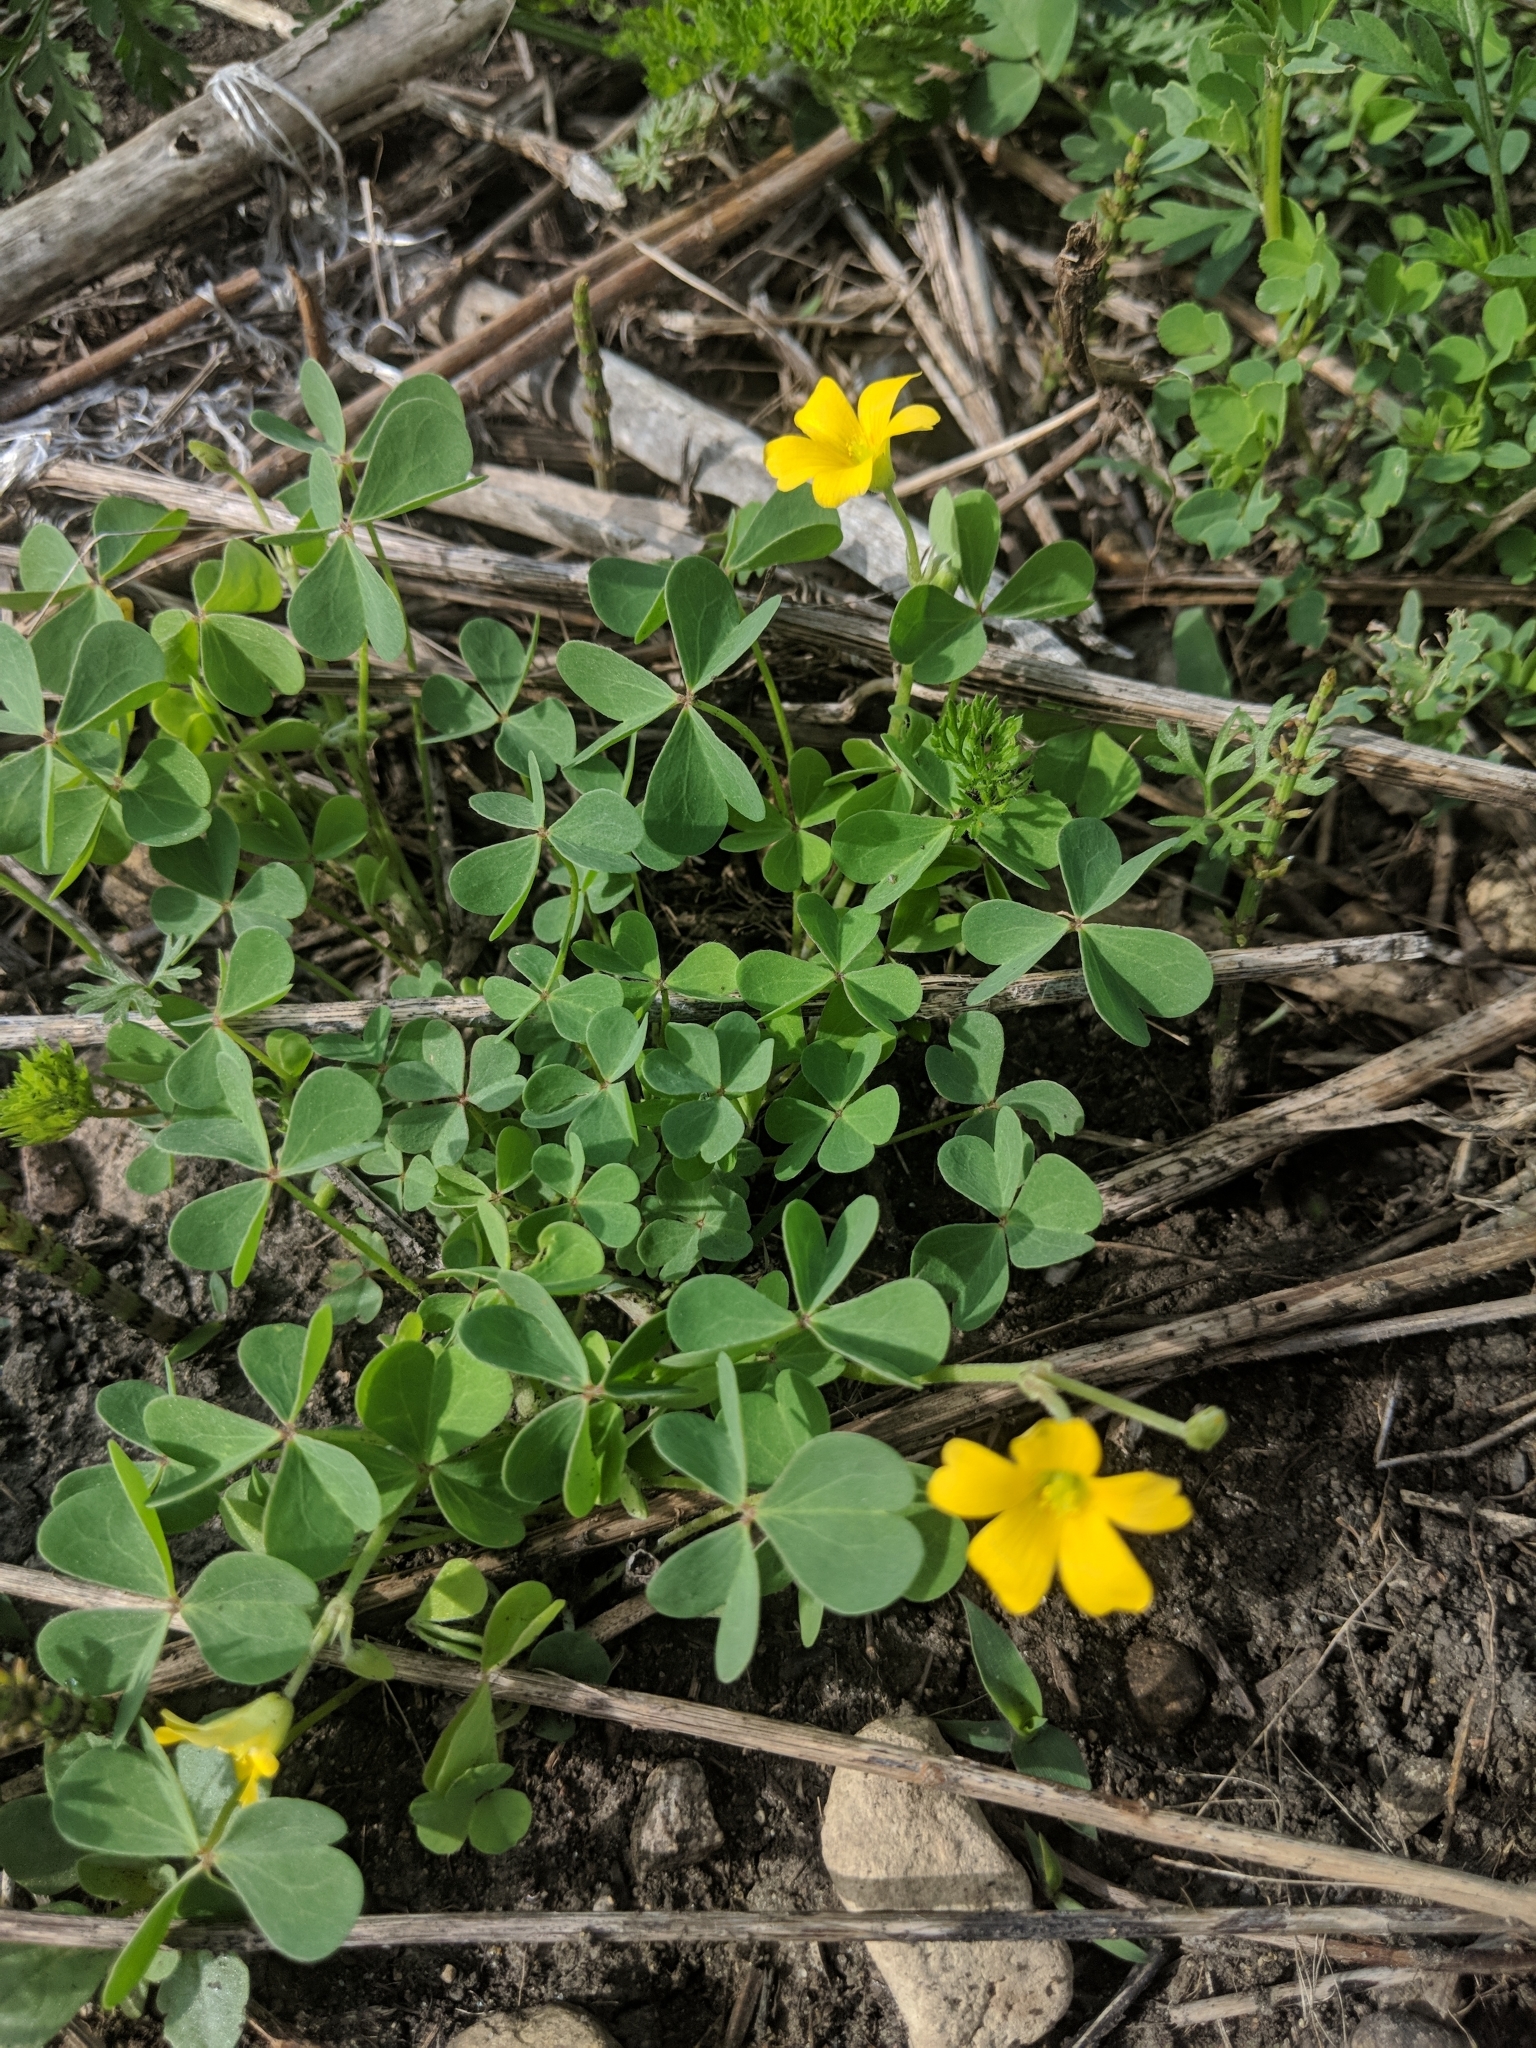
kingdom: Plantae
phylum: Tracheophyta
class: Magnoliopsida
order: Oxalidales
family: Oxalidaceae
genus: Oxalis
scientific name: Oxalis dillenii
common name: Sussex yellow-sorrel
